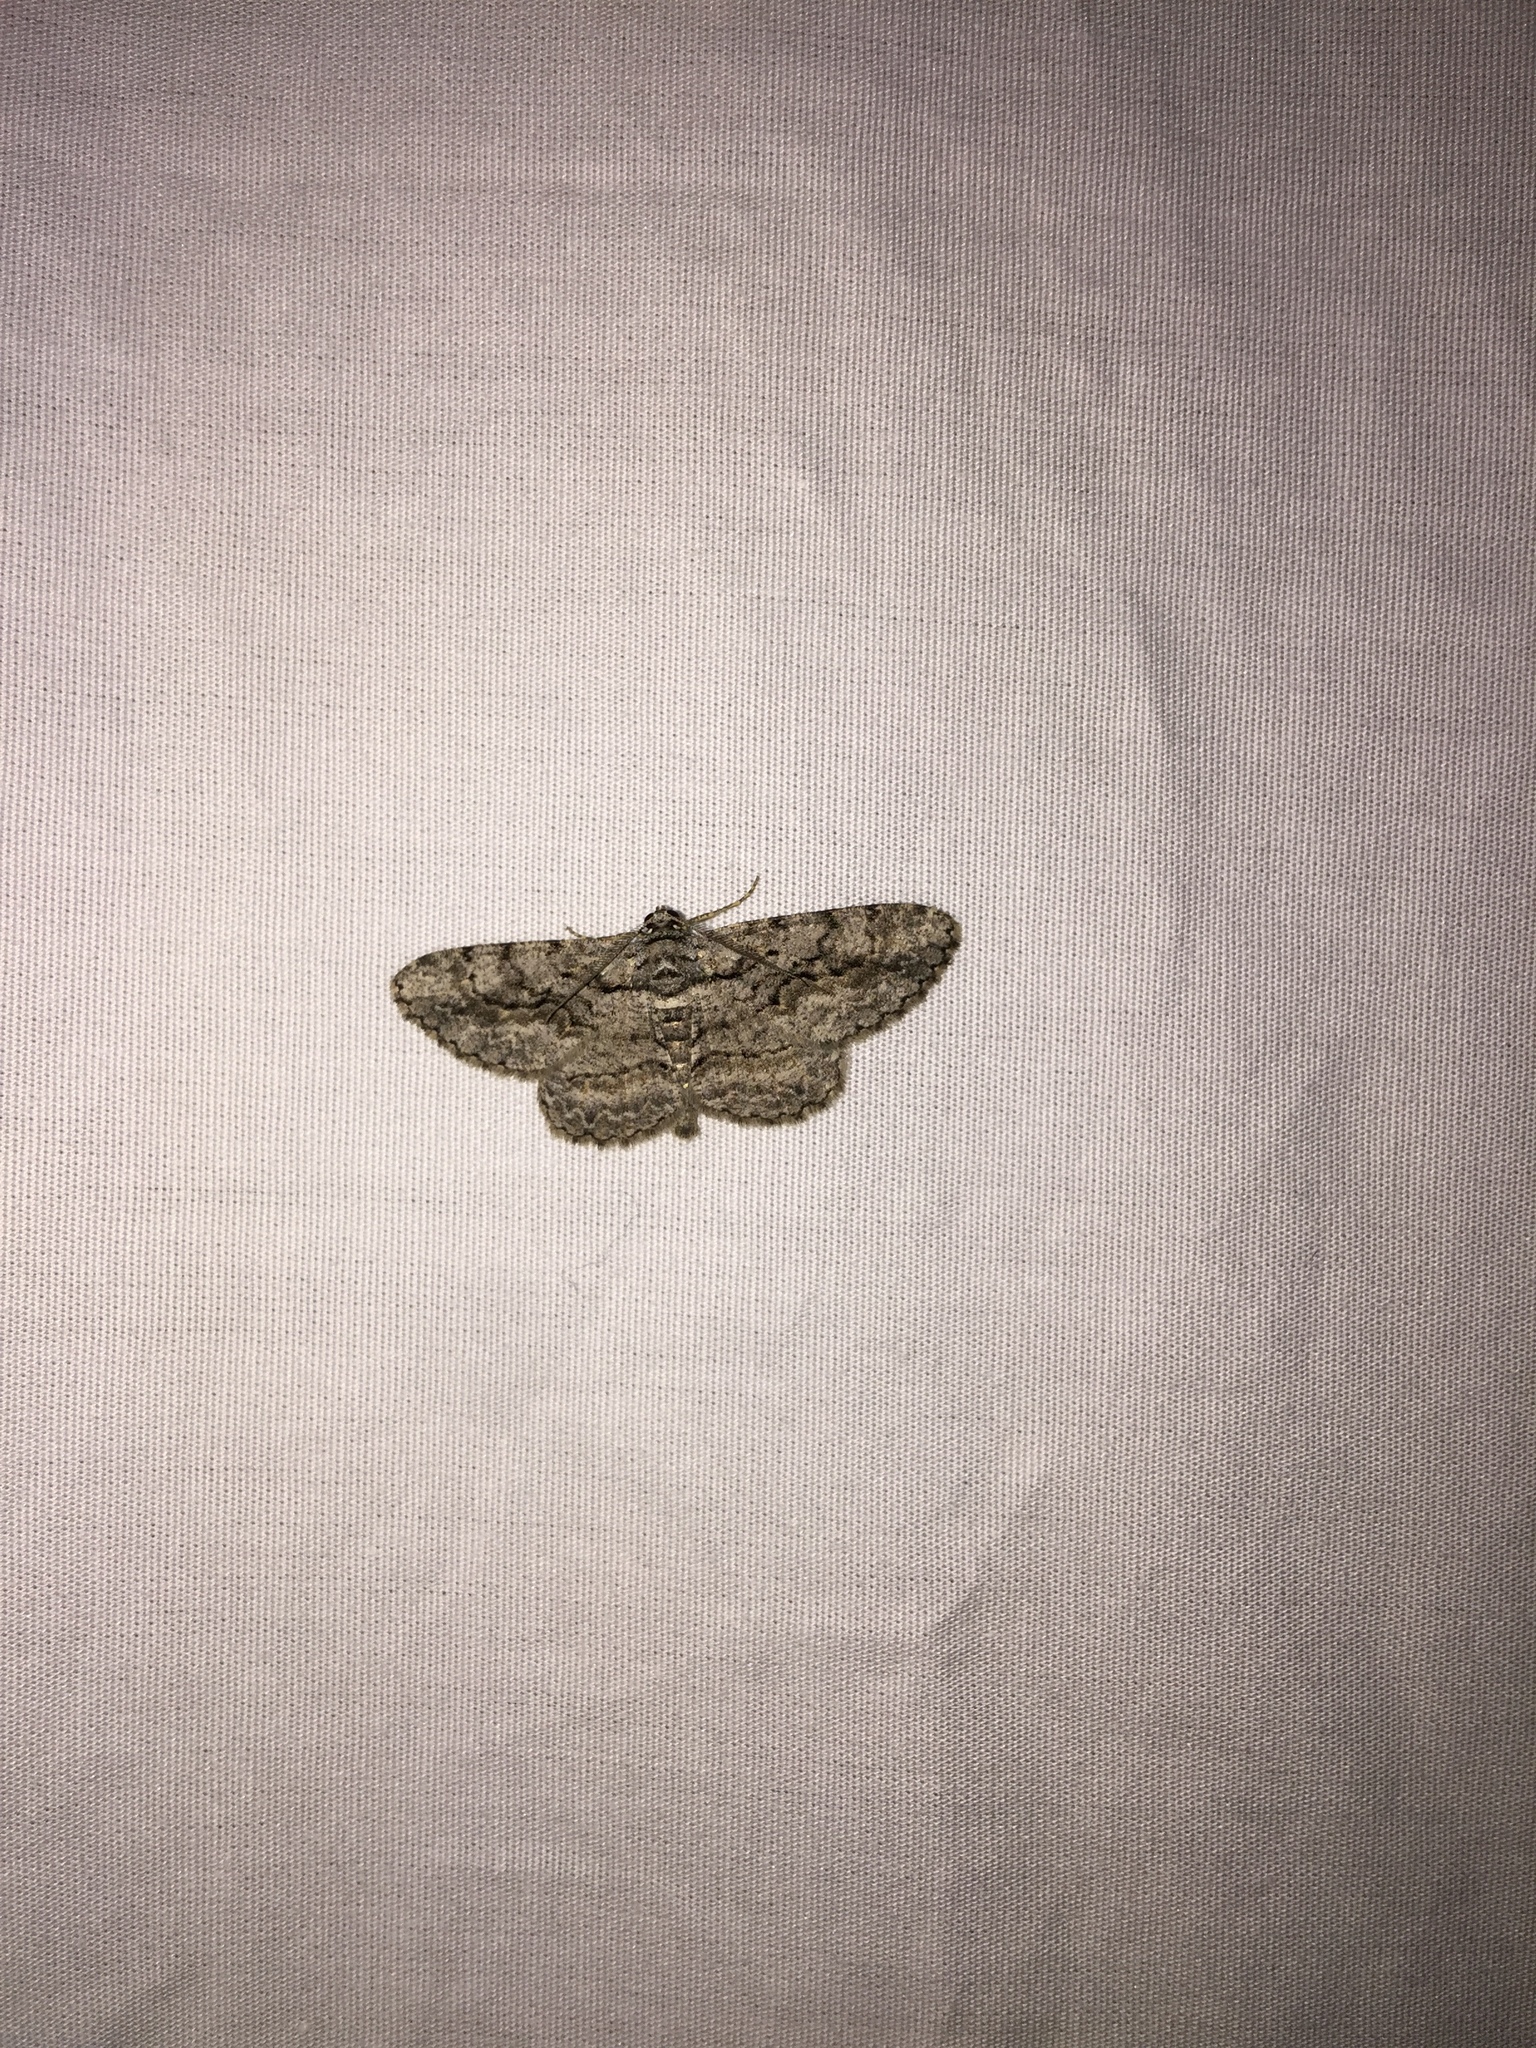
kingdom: Animalia
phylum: Arthropoda
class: Insecta
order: Lepidoptera
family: Geometridae
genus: Anavitrinella
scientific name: Anavitrinella pampinaria
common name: Common gray
